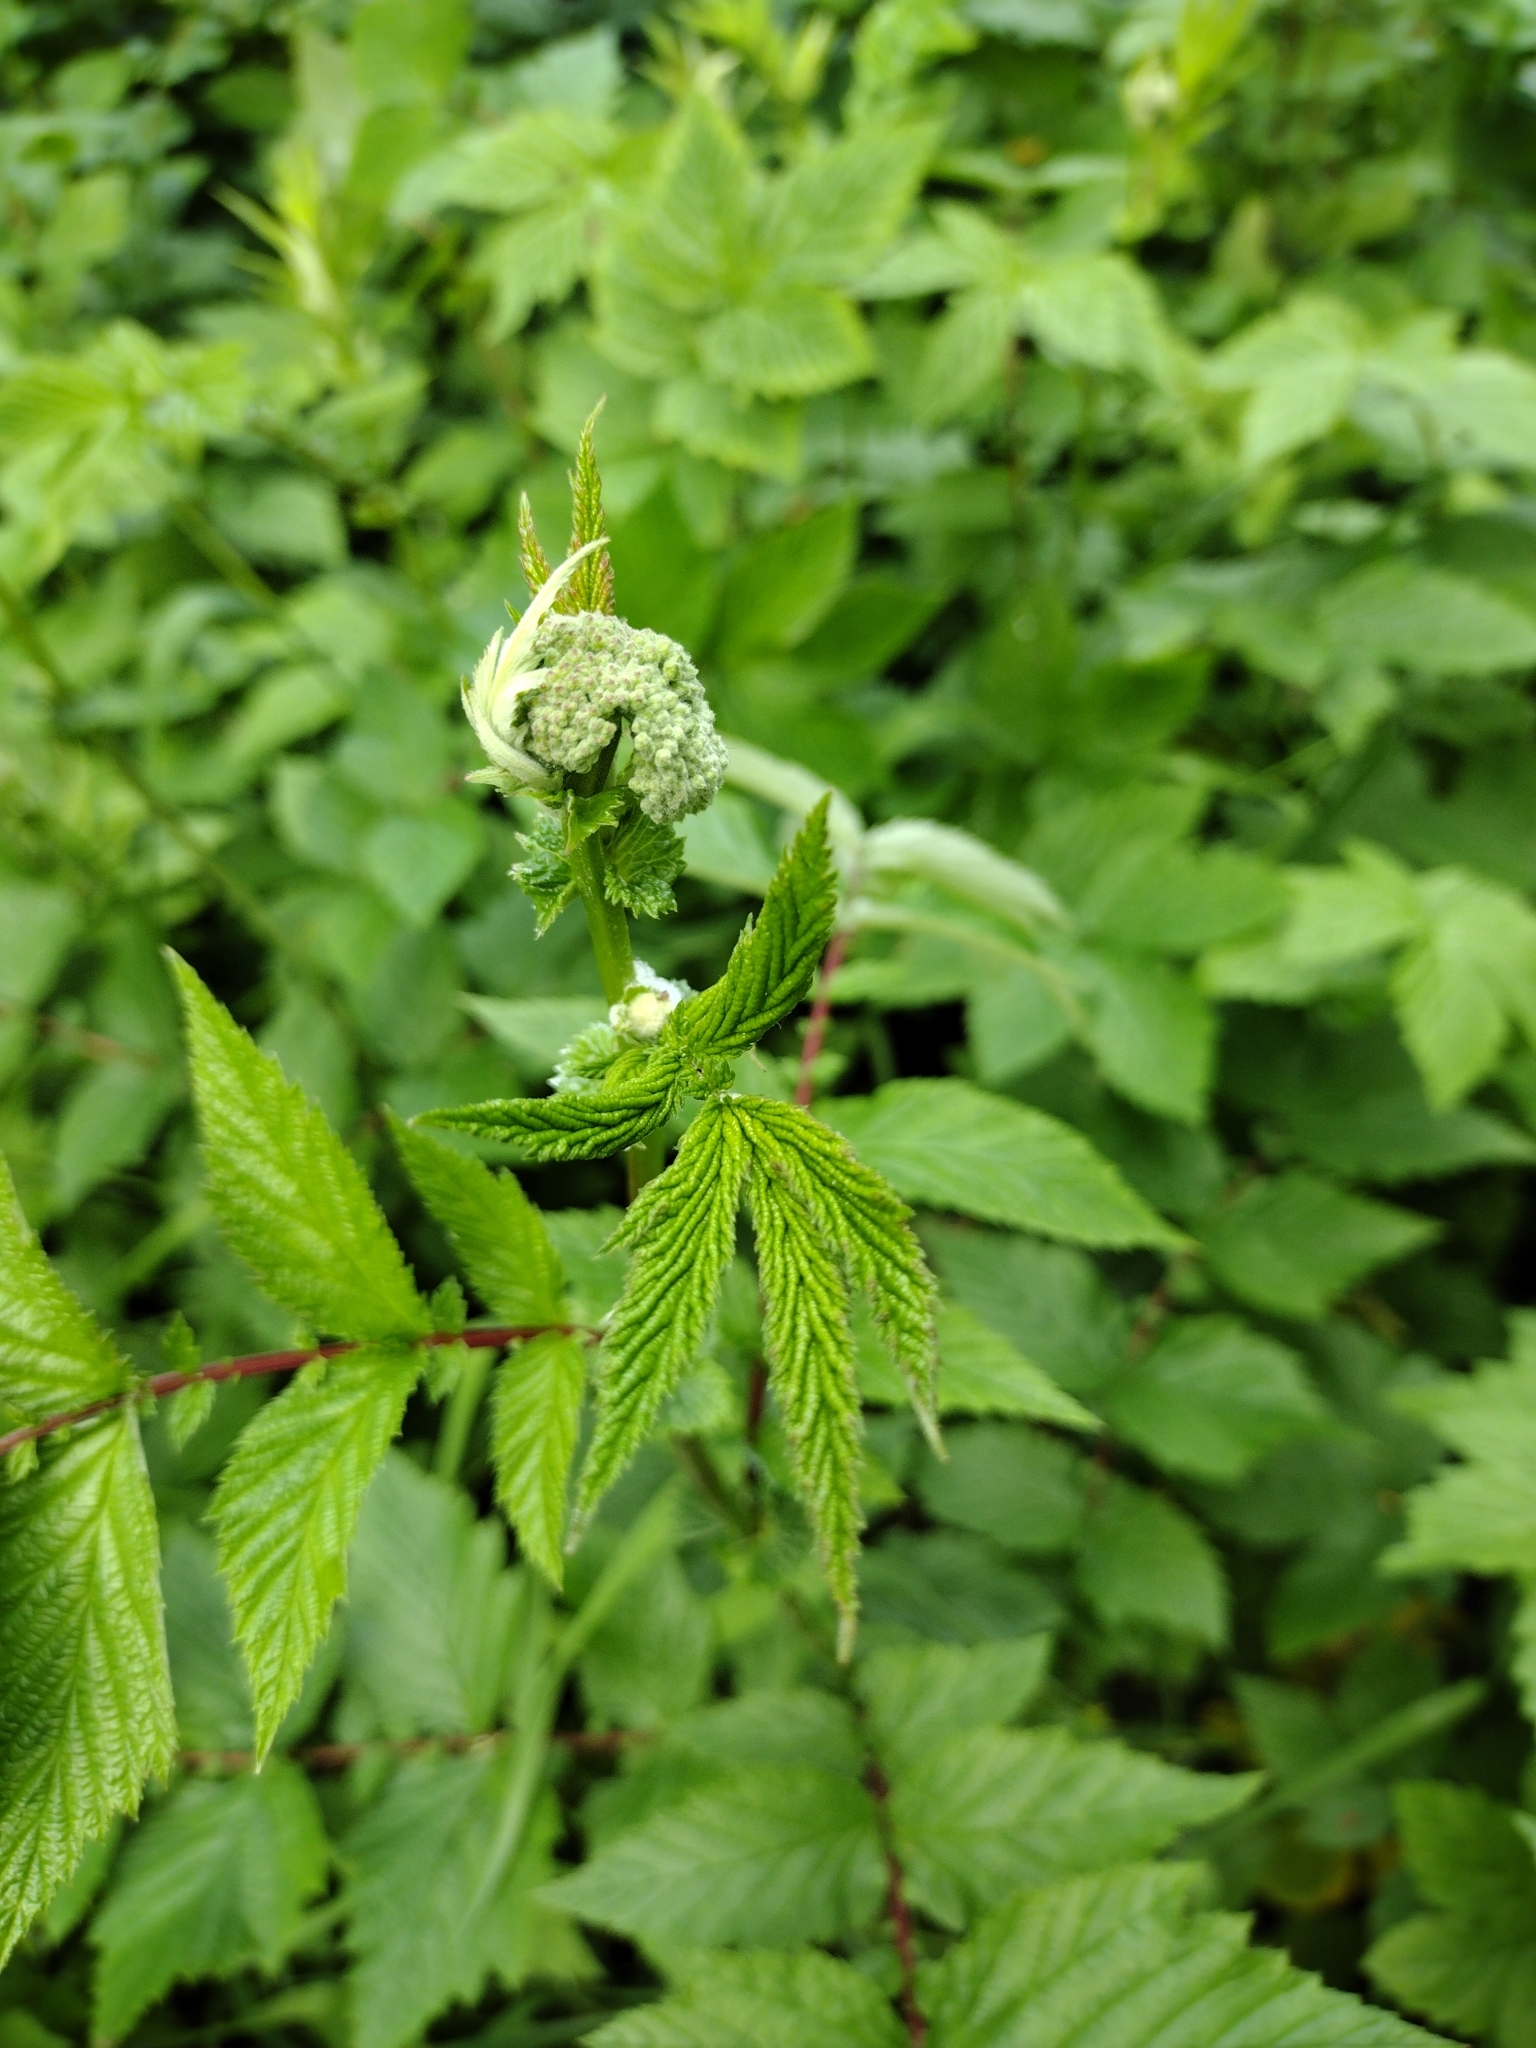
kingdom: Plantae
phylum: Tracheophyta
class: Magnoliopsida
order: Rosales
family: Rosaceae
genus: Filipendula
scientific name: Filipendula ulmaria
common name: Meadowsweet
